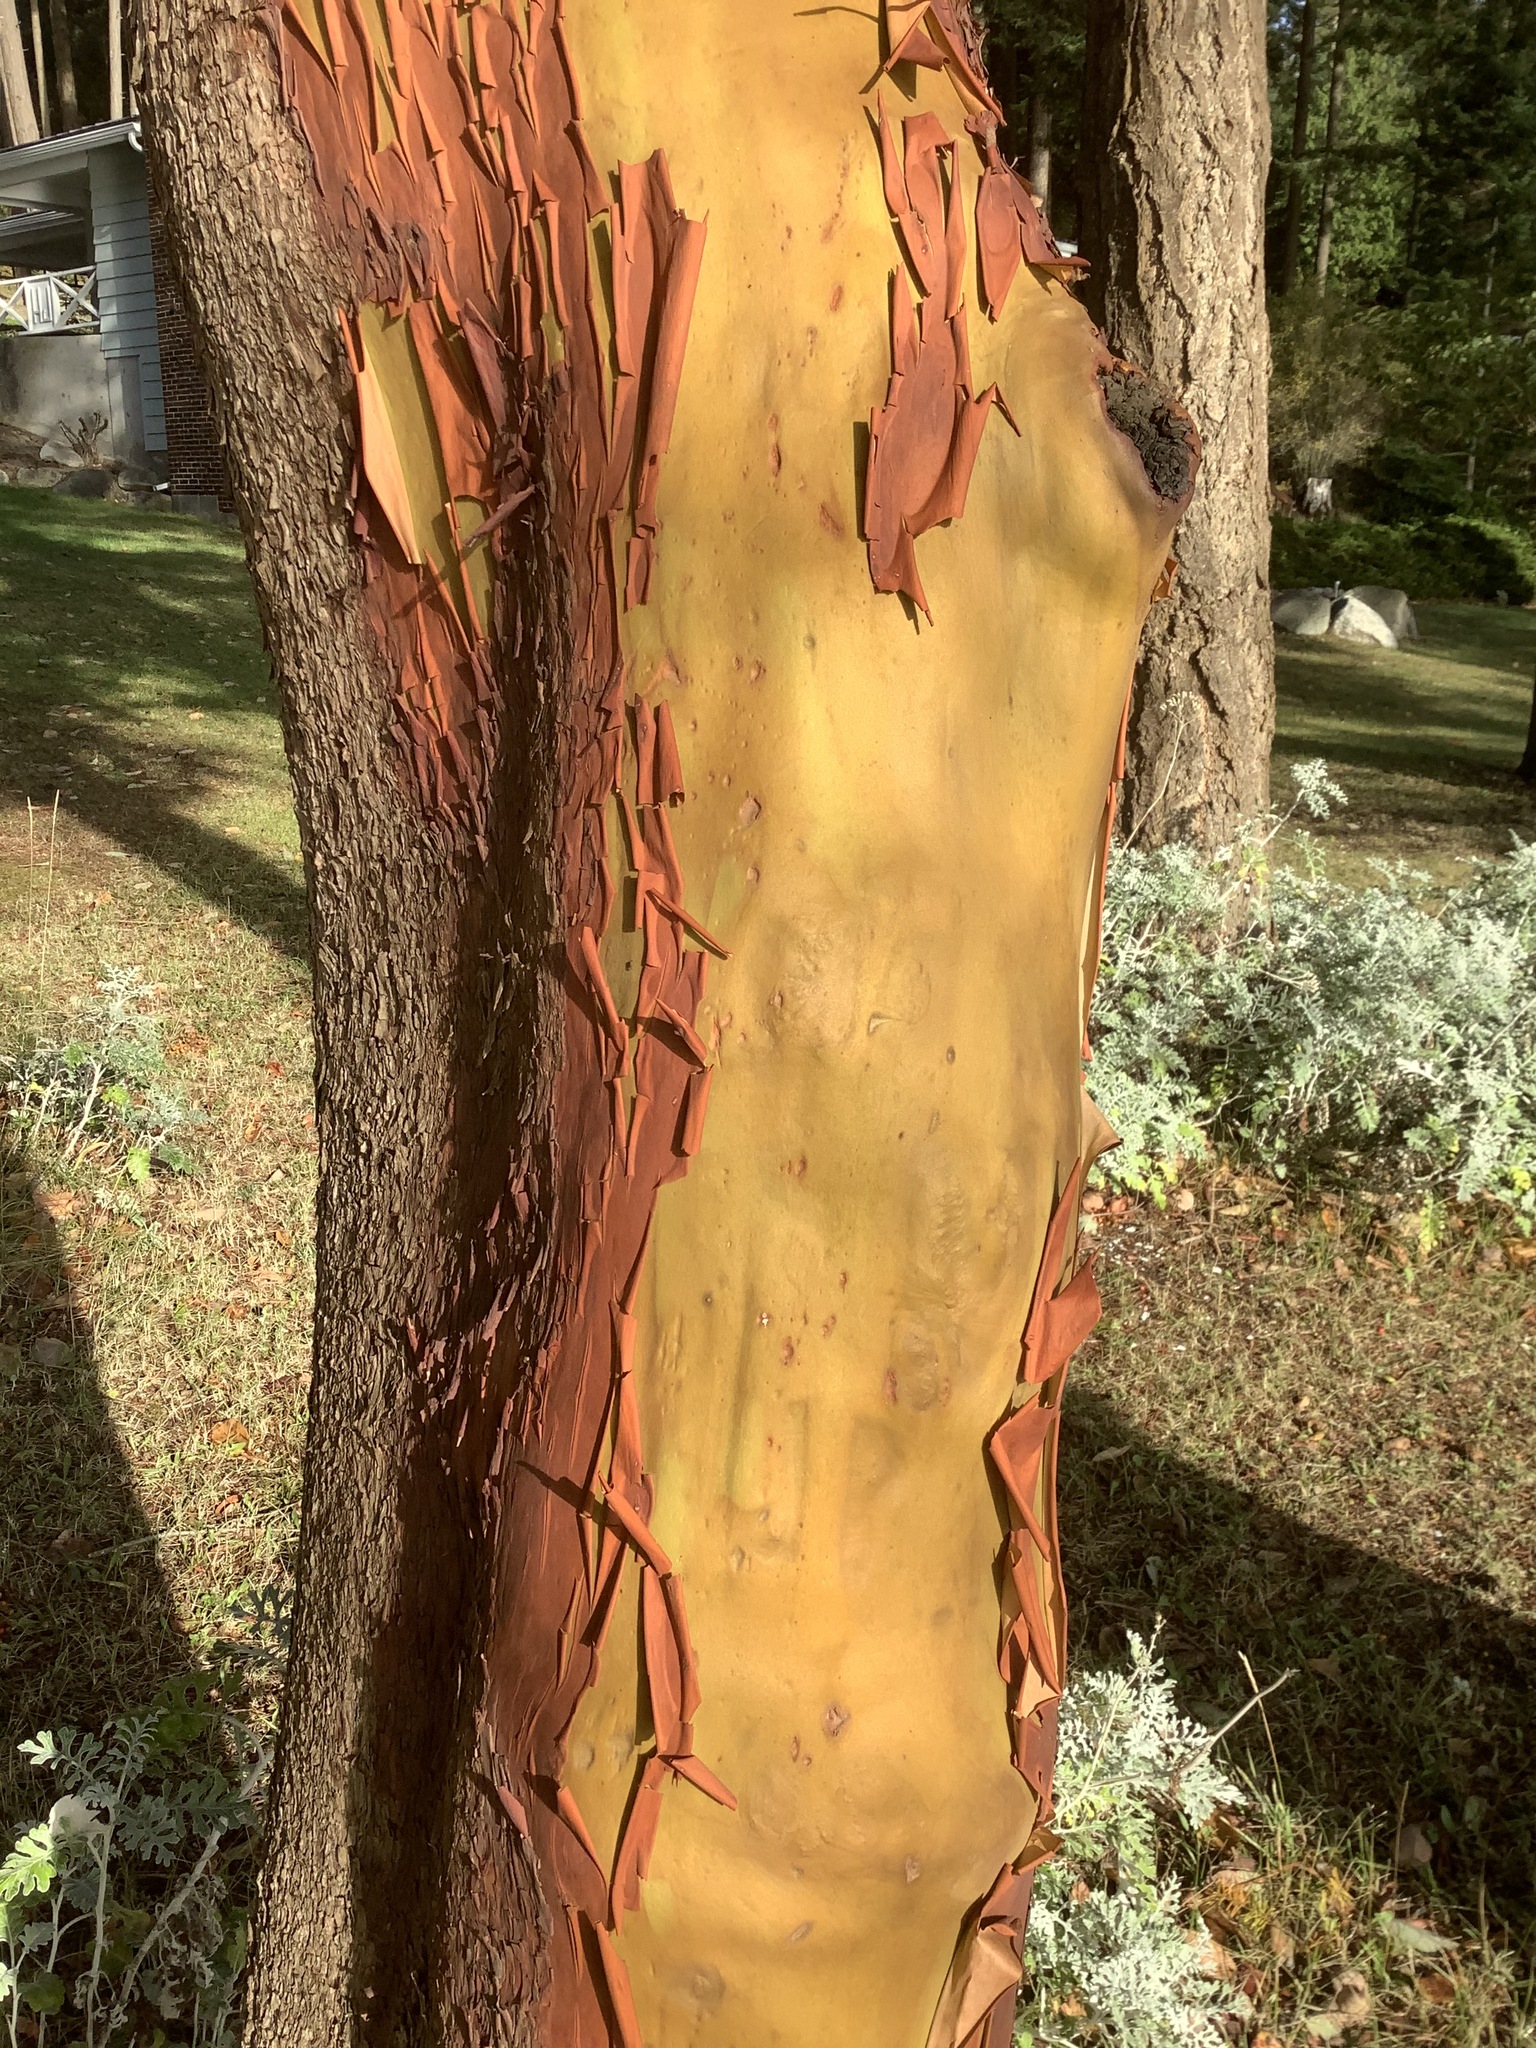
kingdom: Plantae
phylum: Tracheophyta
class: Magnoliopsida
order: Ericales
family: Ericaceae
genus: Arbutus
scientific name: Arbutus menziesii
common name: Pacific madrone
